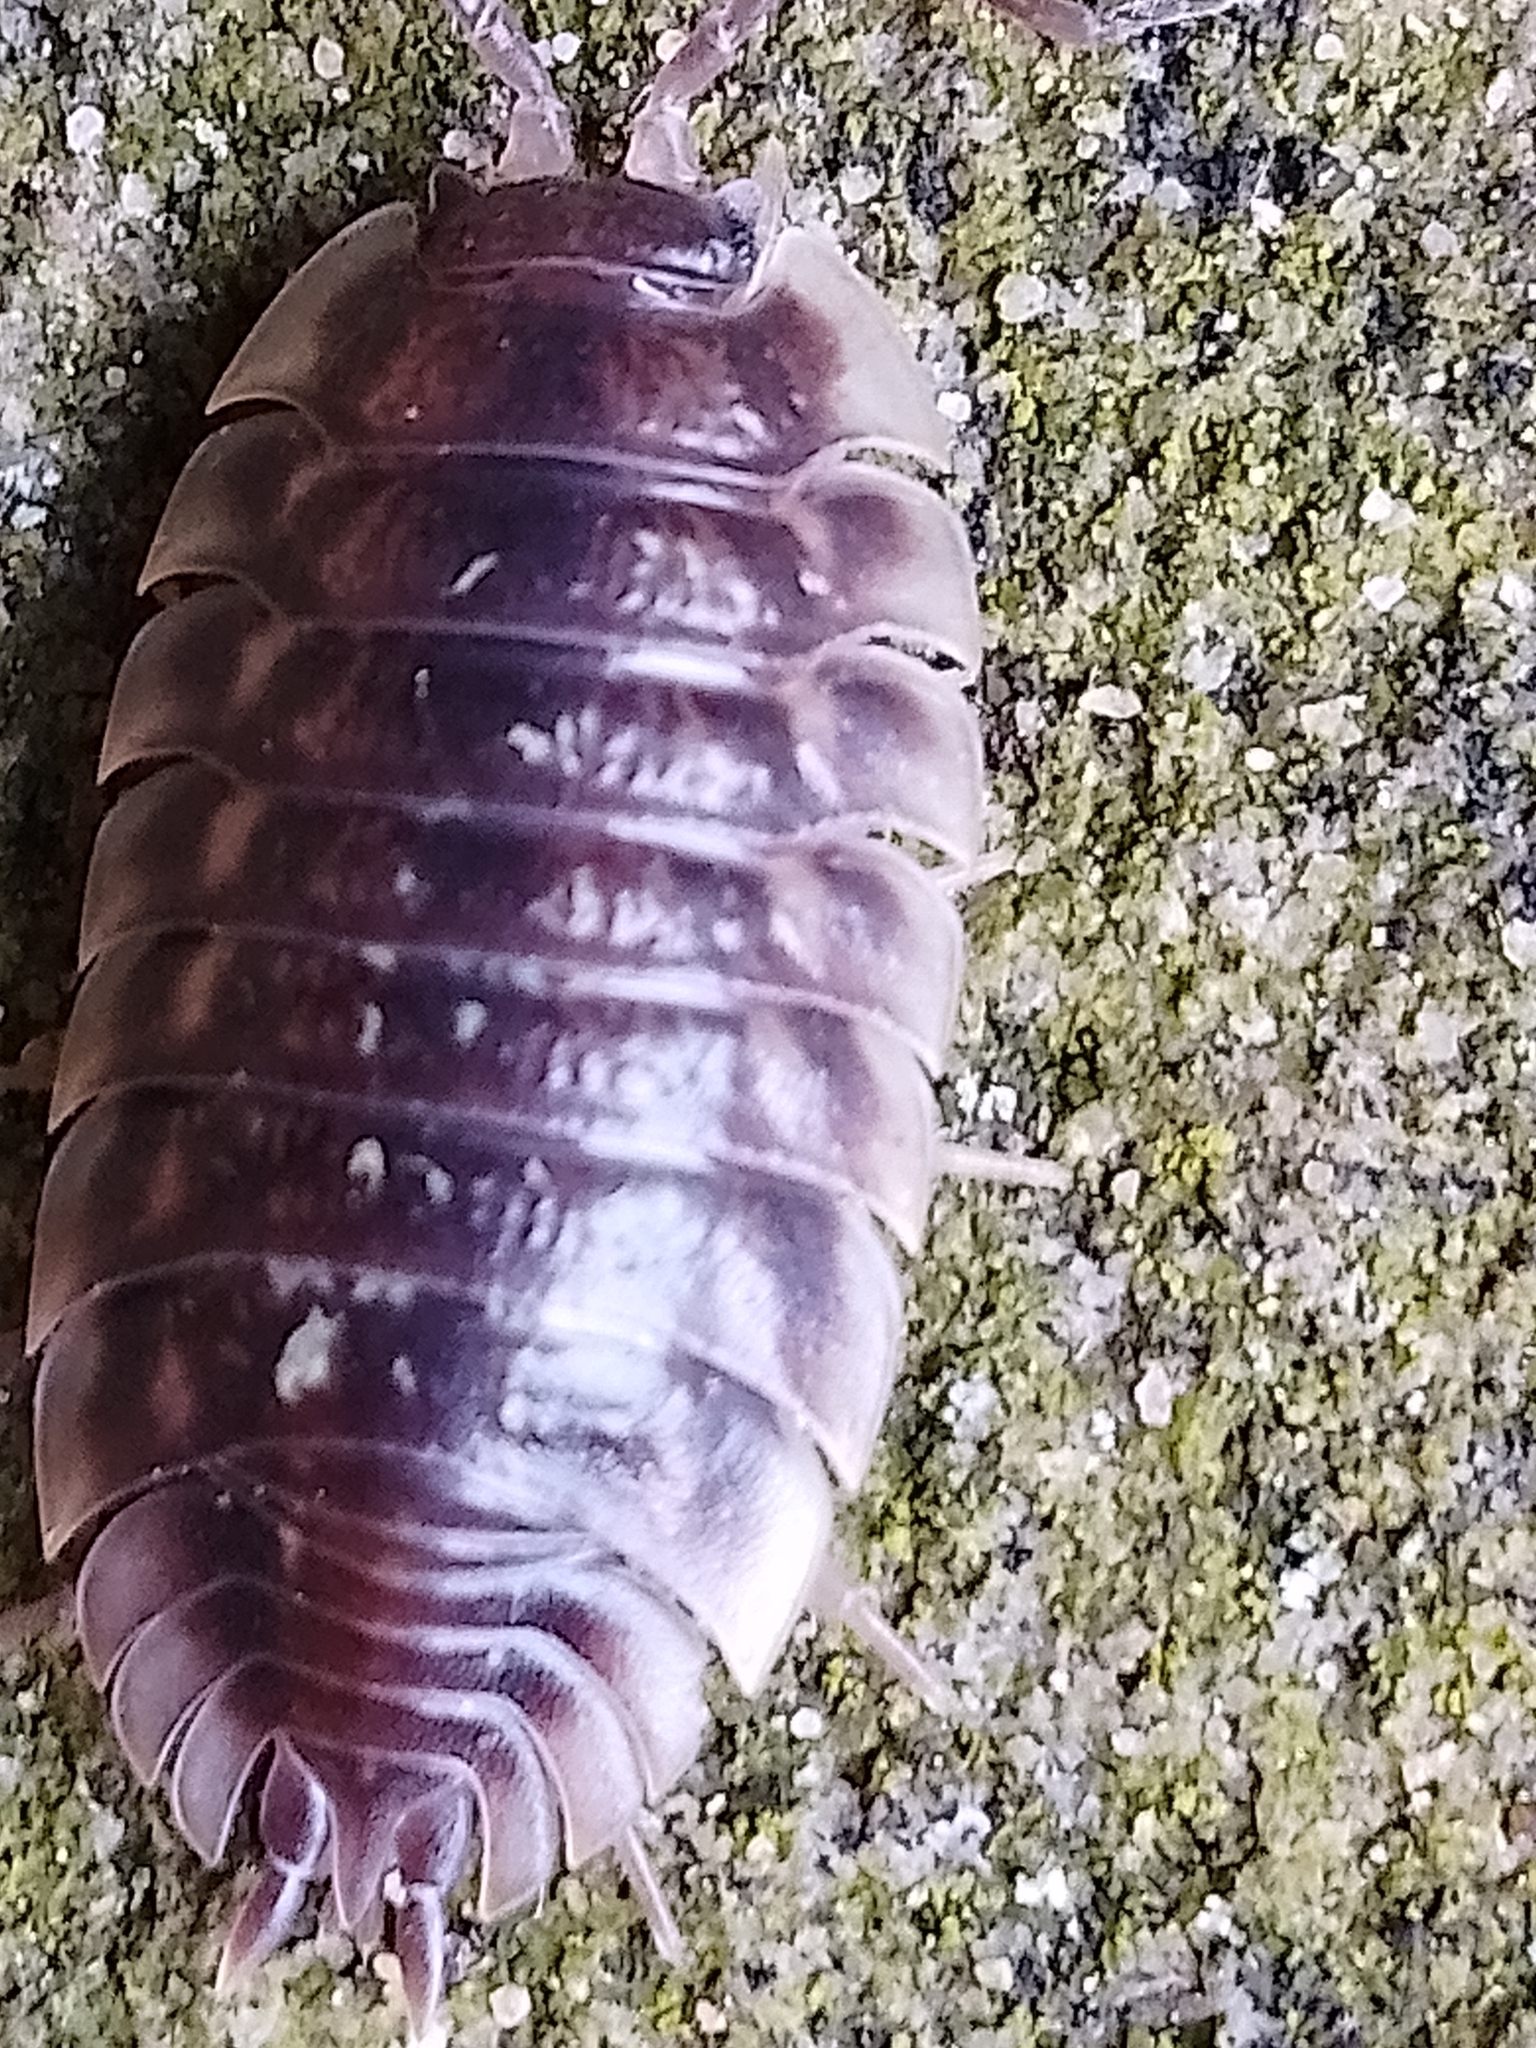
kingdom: Animalia
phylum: Arthropoda
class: Malacostraca
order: Isopoda
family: Oniscidae
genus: Oniscus
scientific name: Oniscus asellus
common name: Common shiny woodlouse
